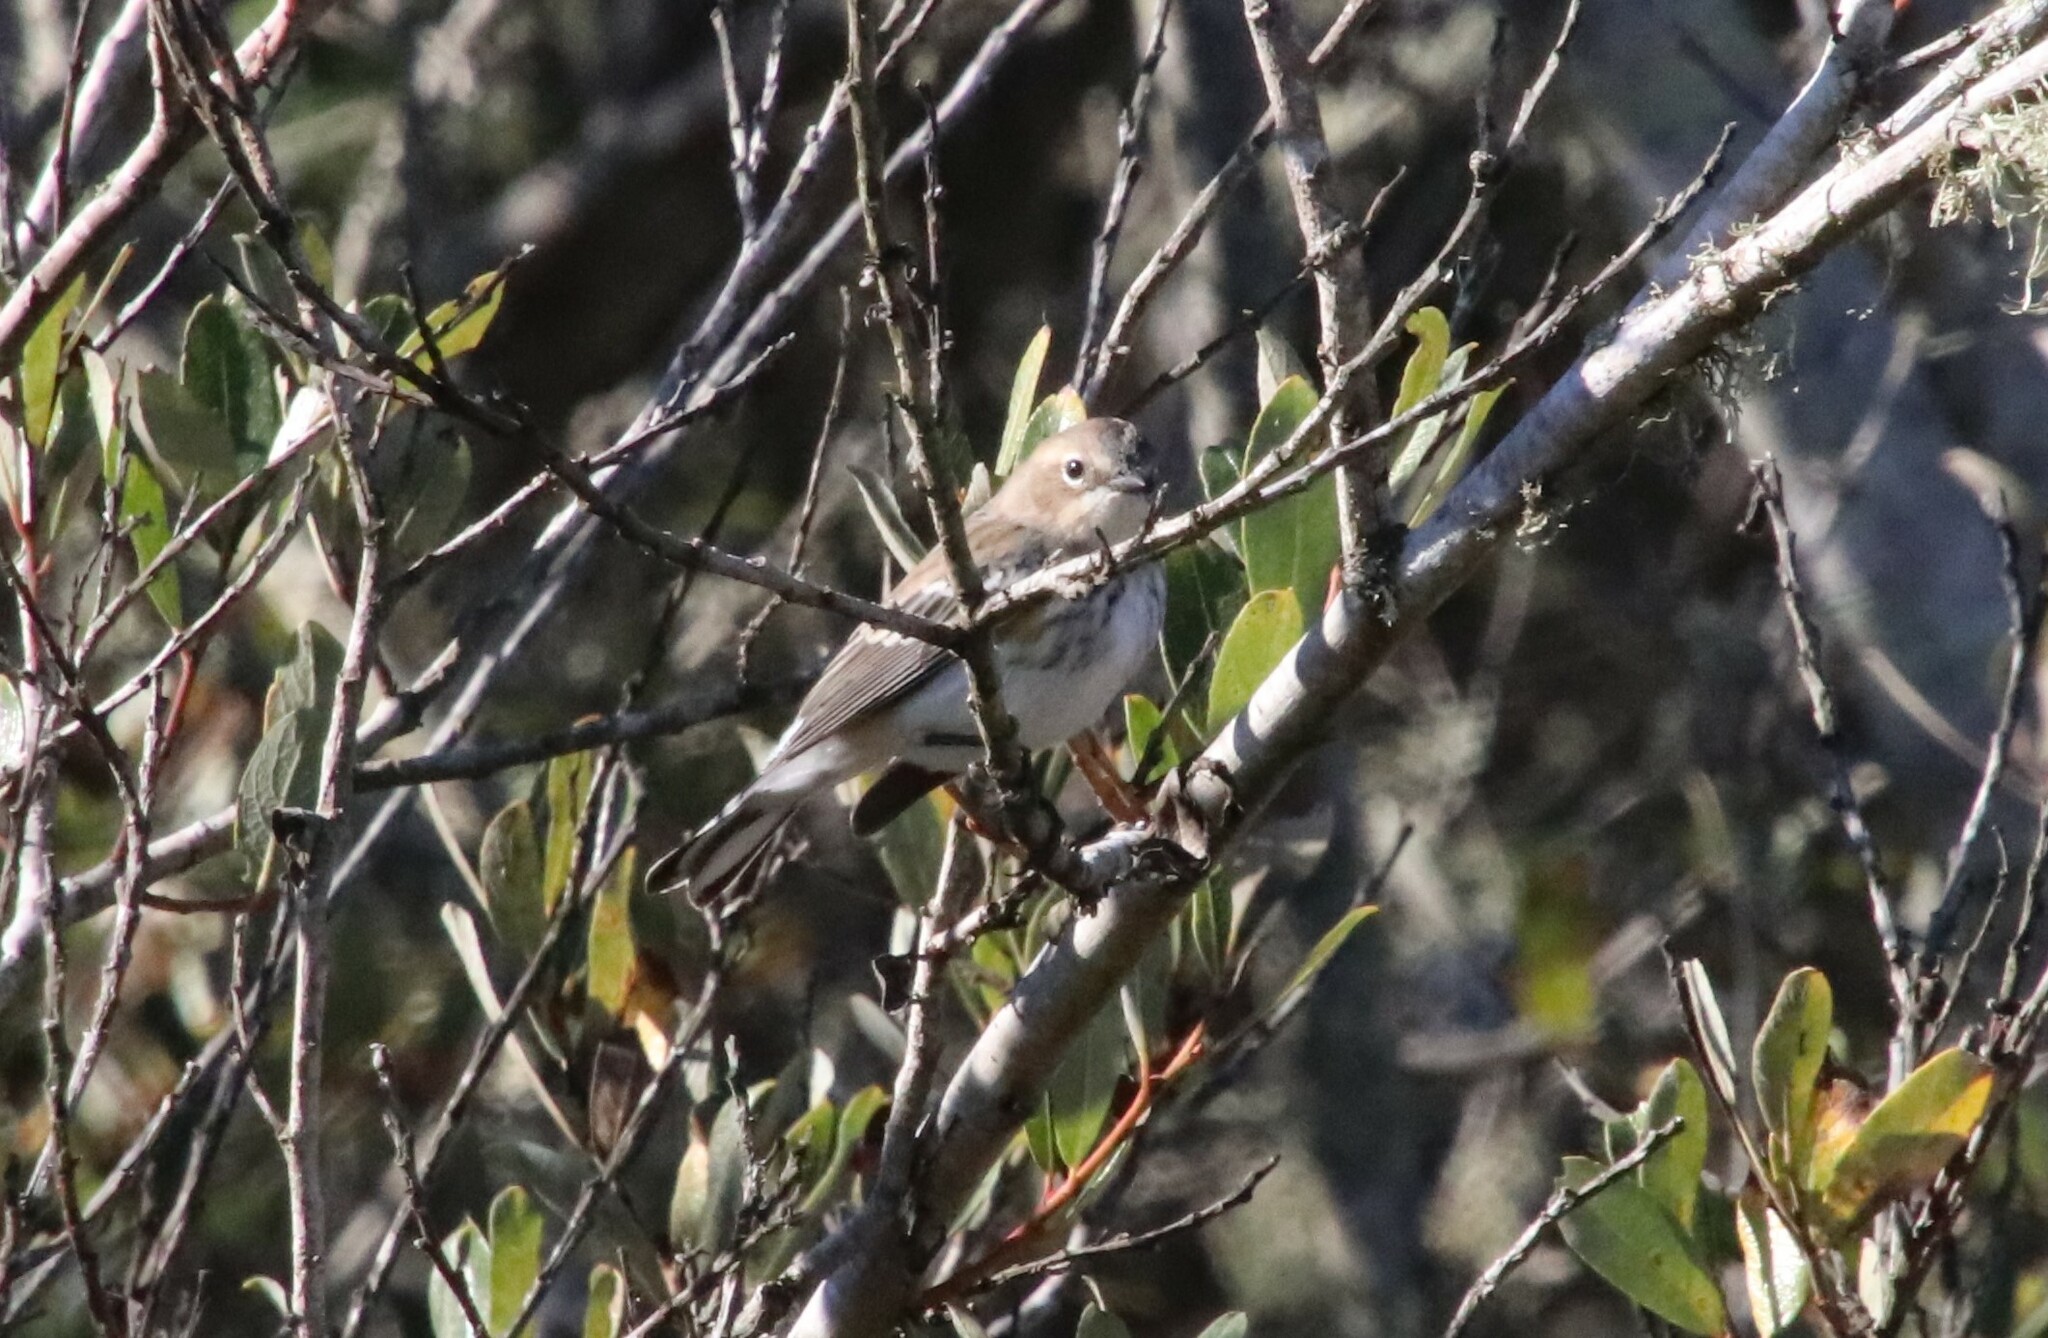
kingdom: Animalia
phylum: Chordata
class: Aves
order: Passeriformes
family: Parulidae
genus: Setophaga
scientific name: Setophaga coronata
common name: Myrtle warbler
